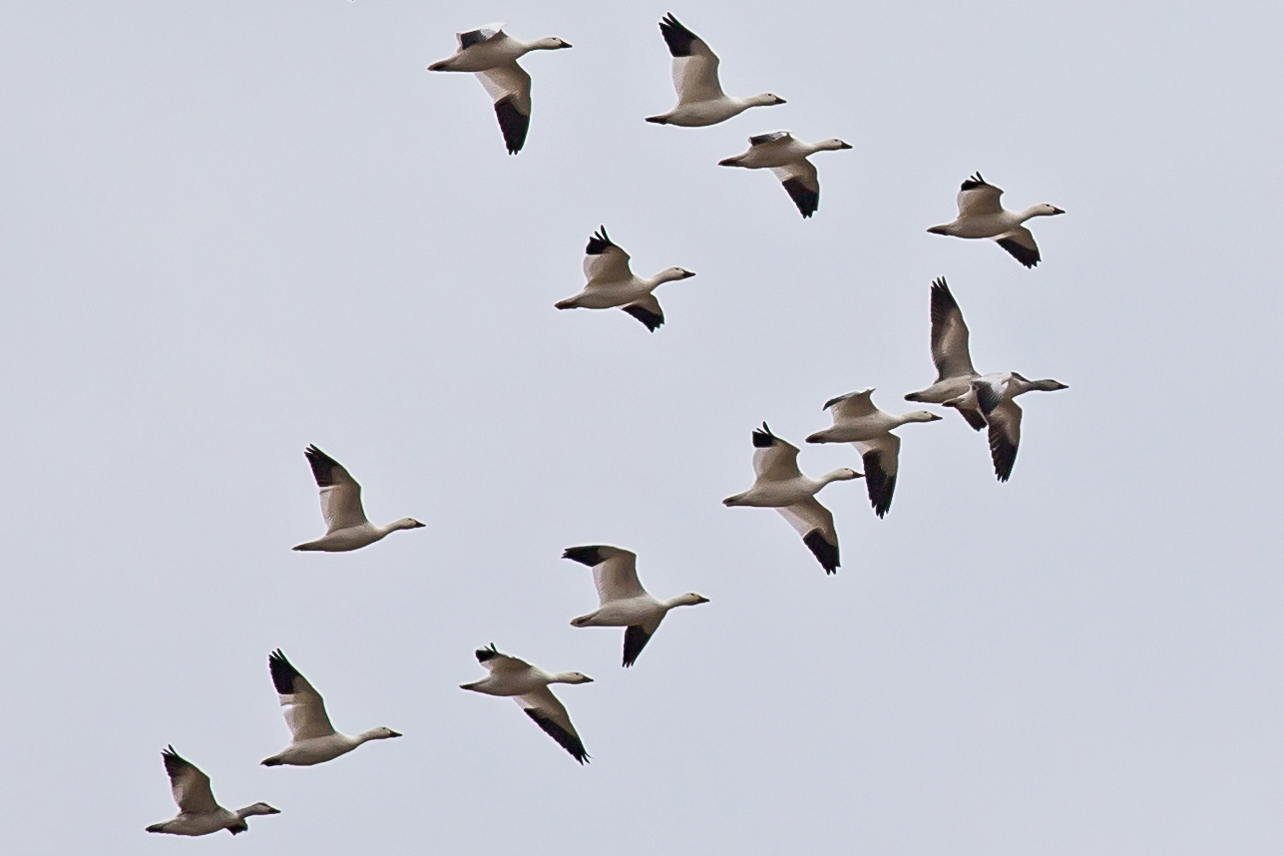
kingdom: Animalia
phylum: Chordata
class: Aves
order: Anseriformes
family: Anatidae
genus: Anser
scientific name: Anser caerulescens
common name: Snow goose
